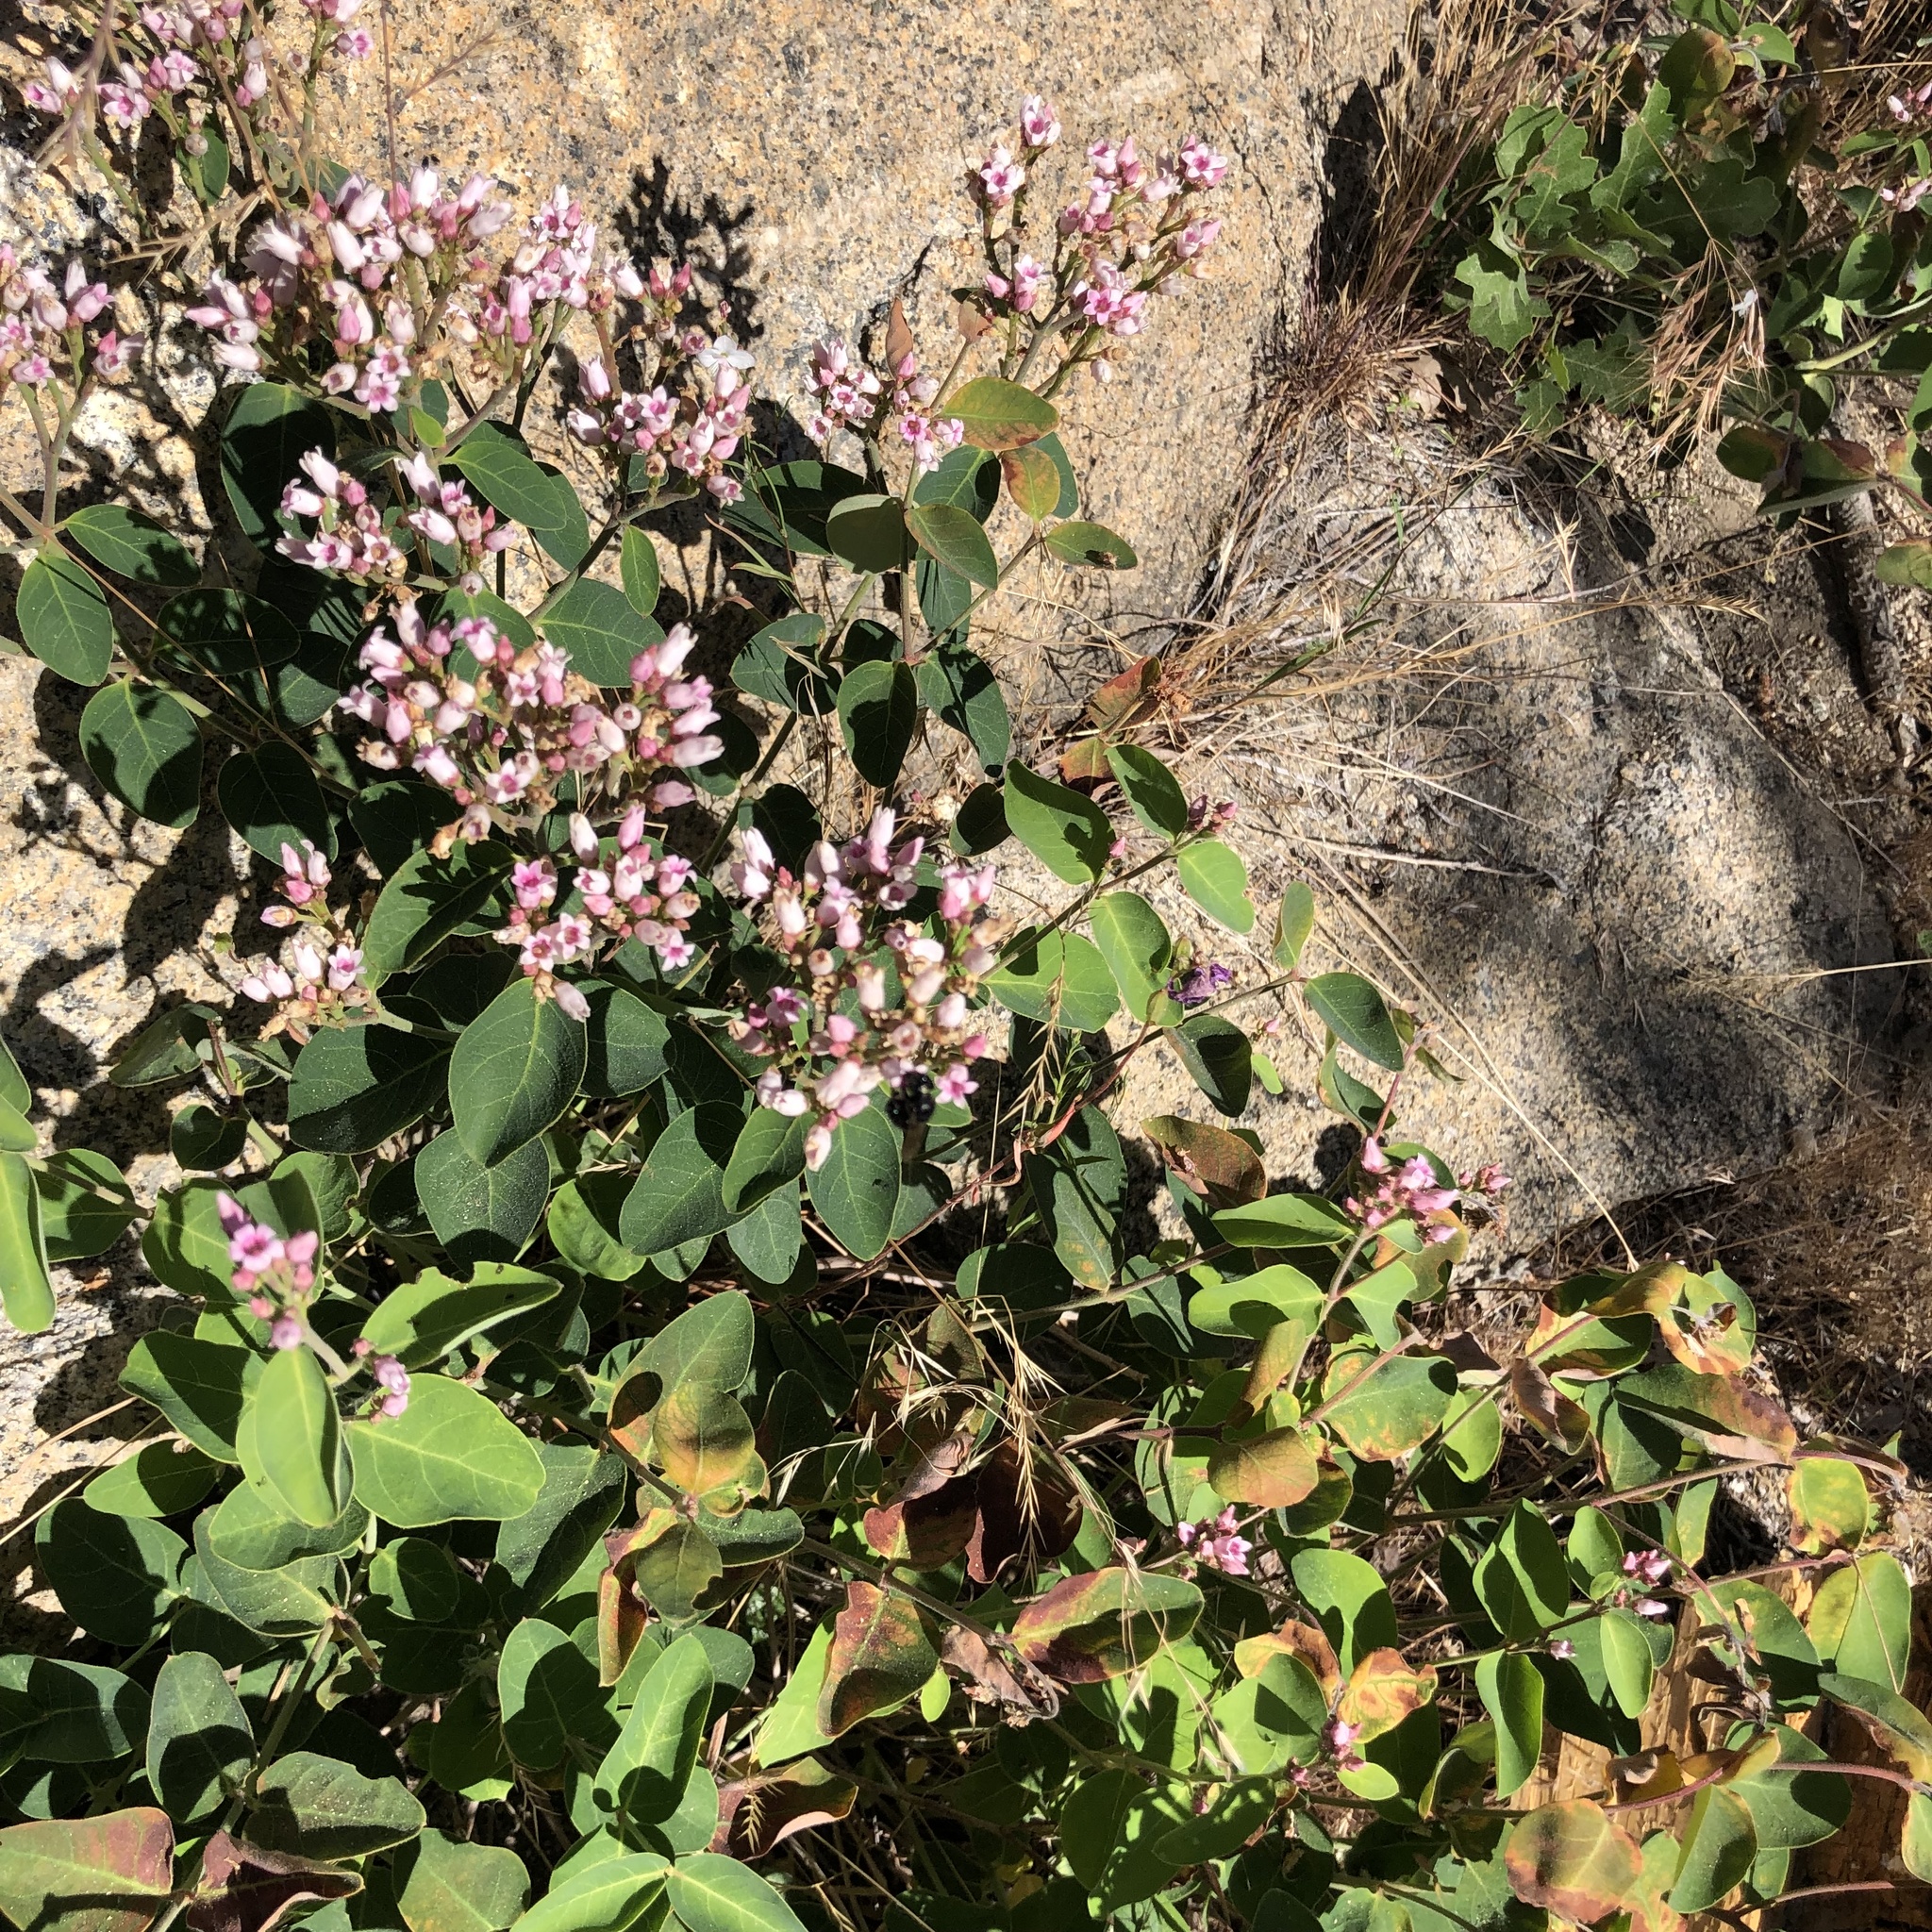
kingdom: Plantae
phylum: Tracheophyta
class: Magnoliopsida
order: Gentianales
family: Apocynaceae
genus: Apocynum
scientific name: Apocynum androsaemifolium
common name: Spreading dogbane
